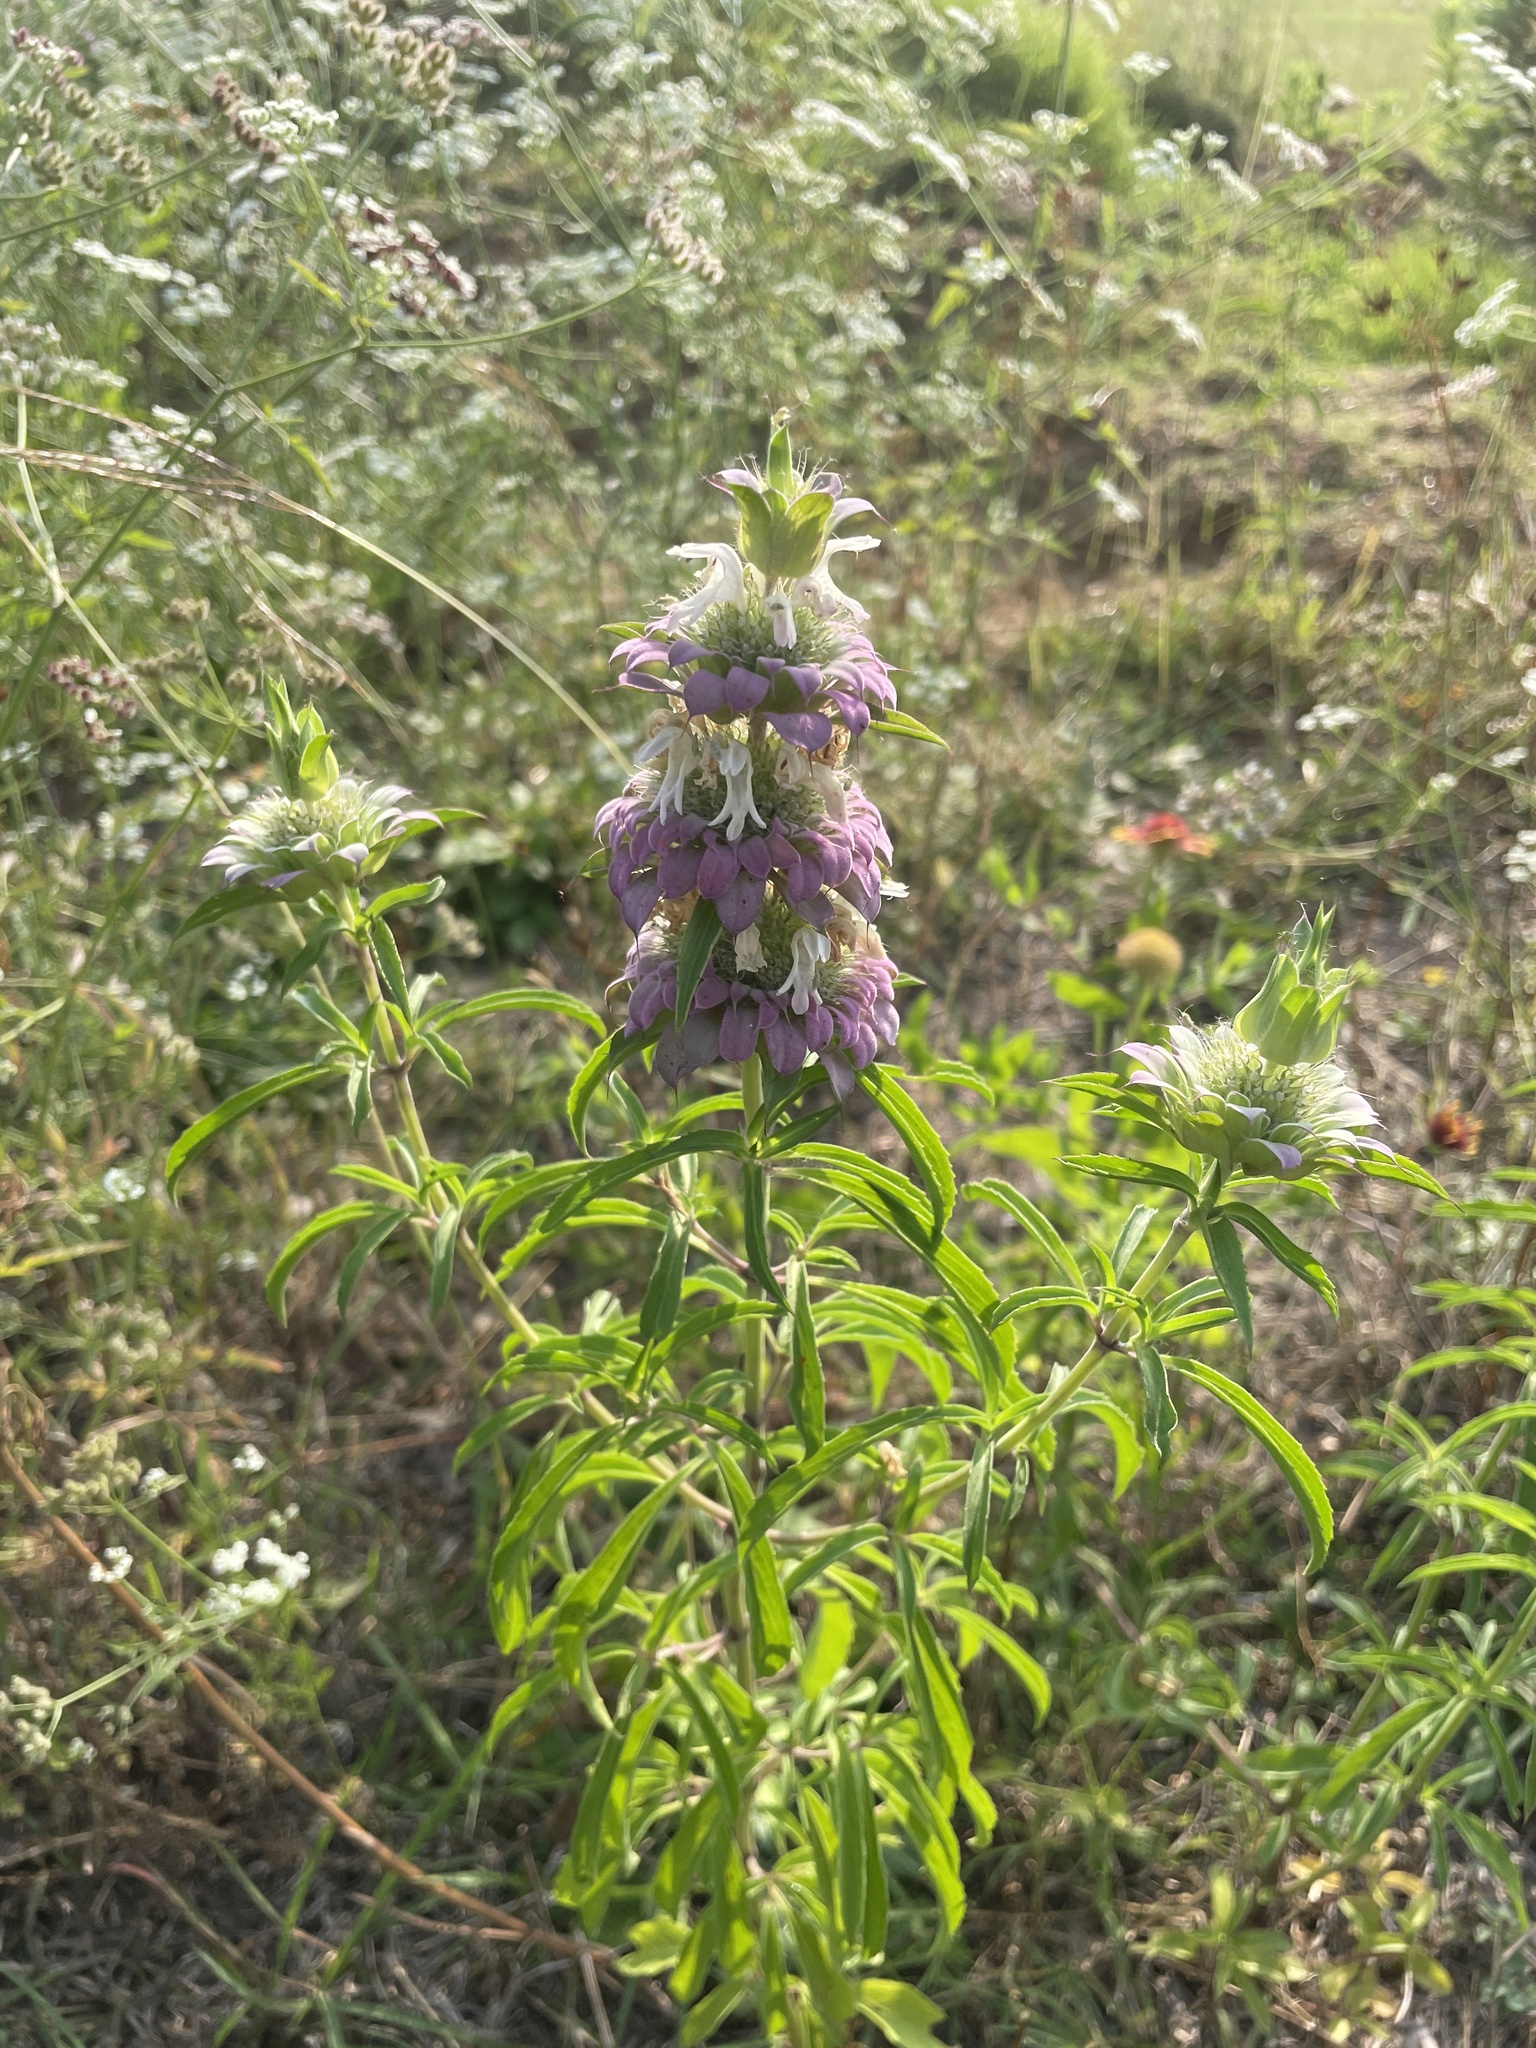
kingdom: Plantae
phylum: Tracheophyta
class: Magnoliopsida
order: Lamiales
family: Lamiaceae
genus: Monarda
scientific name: Monarda citriodora
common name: Lemon beebalm
